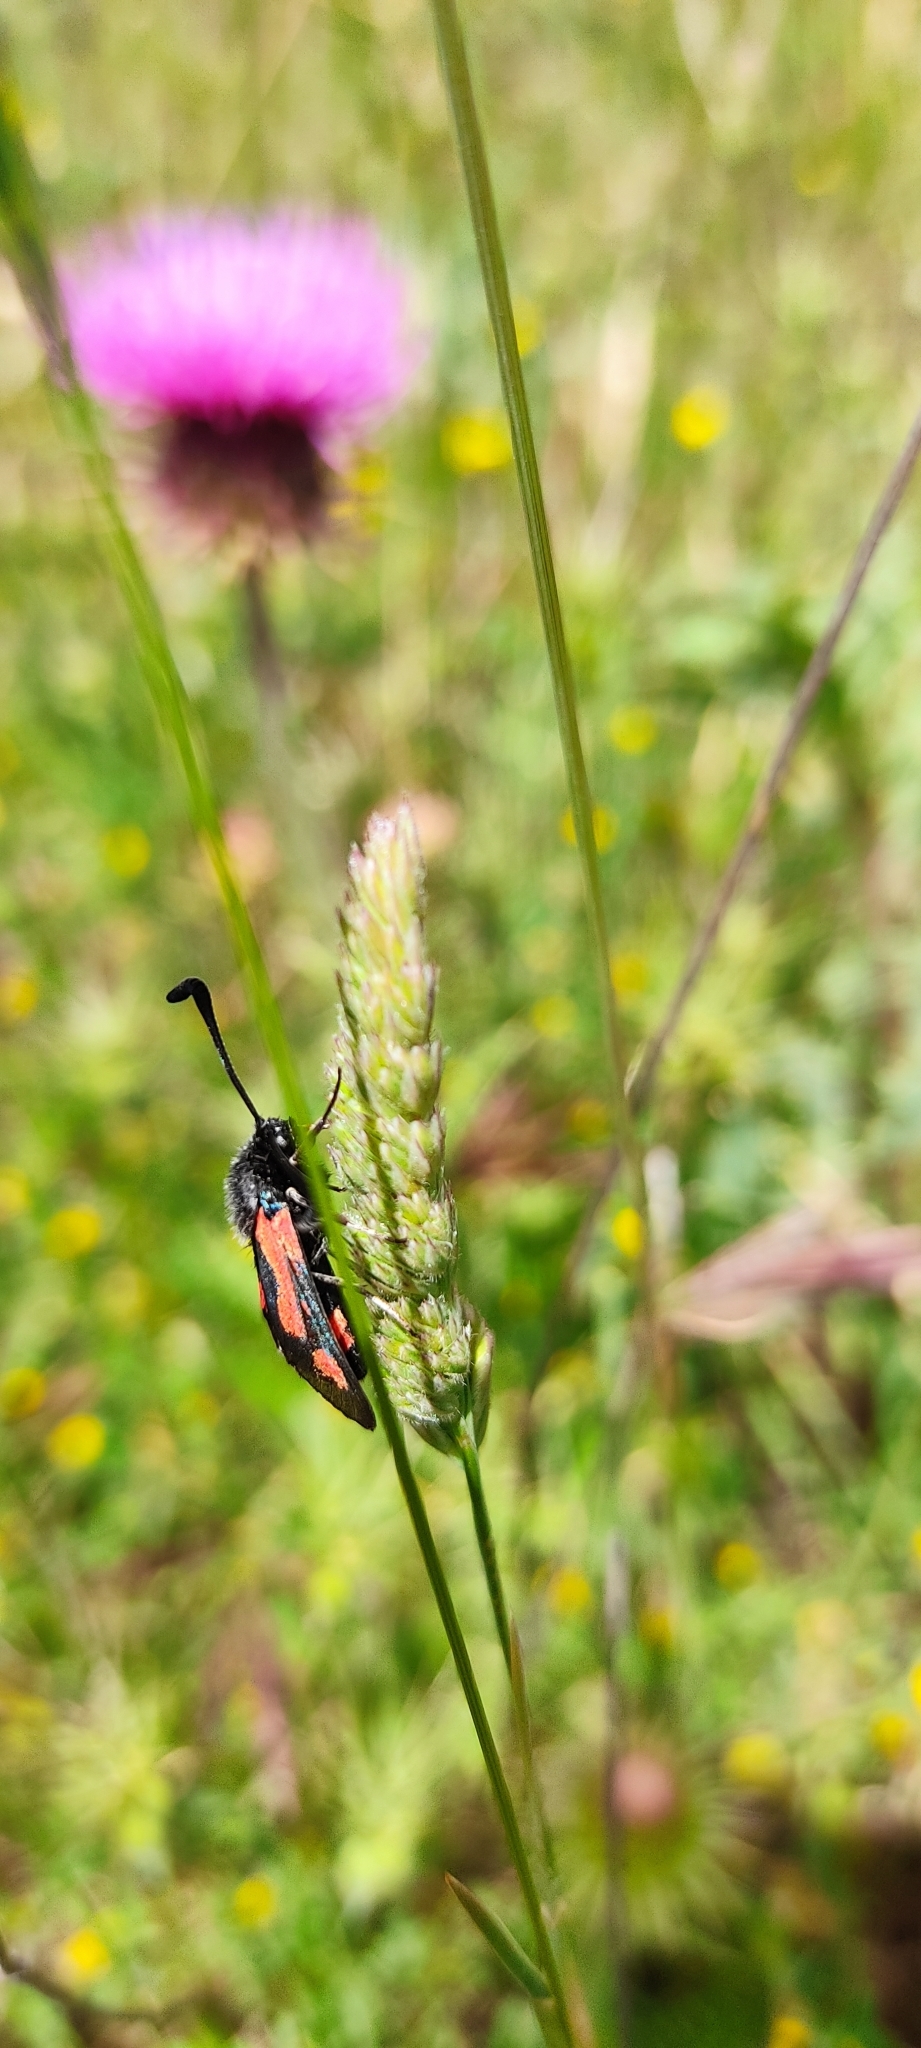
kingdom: Animalia
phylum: Arthropoda
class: Insecta
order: Lepidoptera
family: Zygaenidae
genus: Zygaena
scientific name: Zygaena sarpedon
